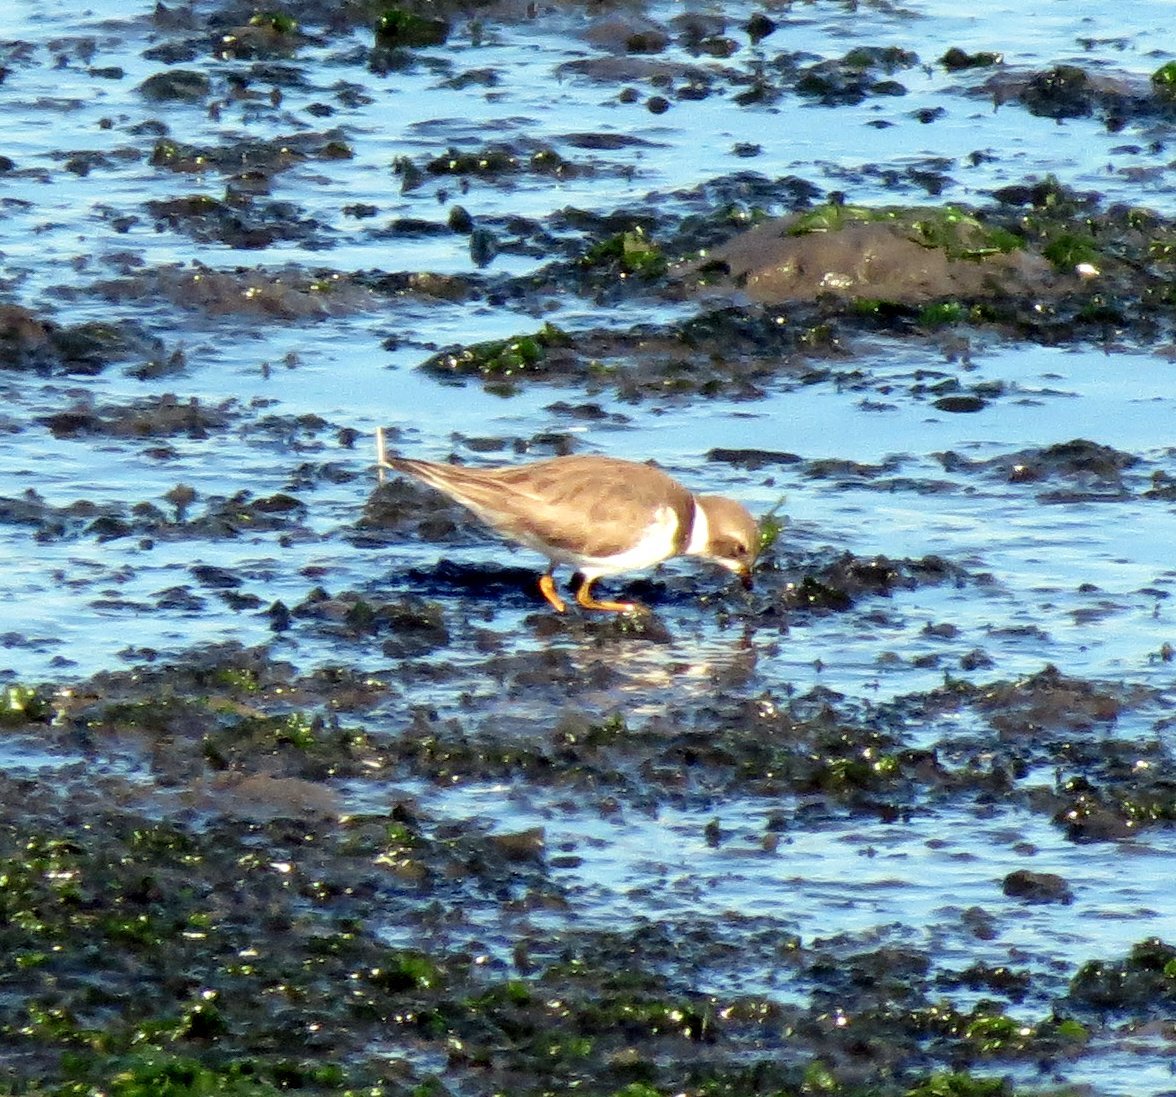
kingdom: Animalia
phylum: Chordata
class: Aves
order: Charadriiformes
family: Charadriidae
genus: Charadrius
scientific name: Charadrius semipalmatus
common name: Semipalmated plover
